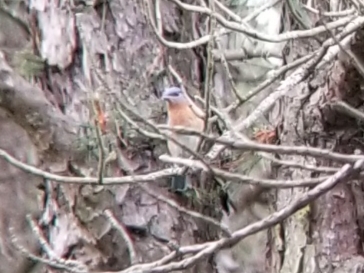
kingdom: Animalia
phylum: Chordata
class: Aves
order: Passeriformes
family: Turdidae
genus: Sialia
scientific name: Sialia sialis
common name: Eastern bluebird
